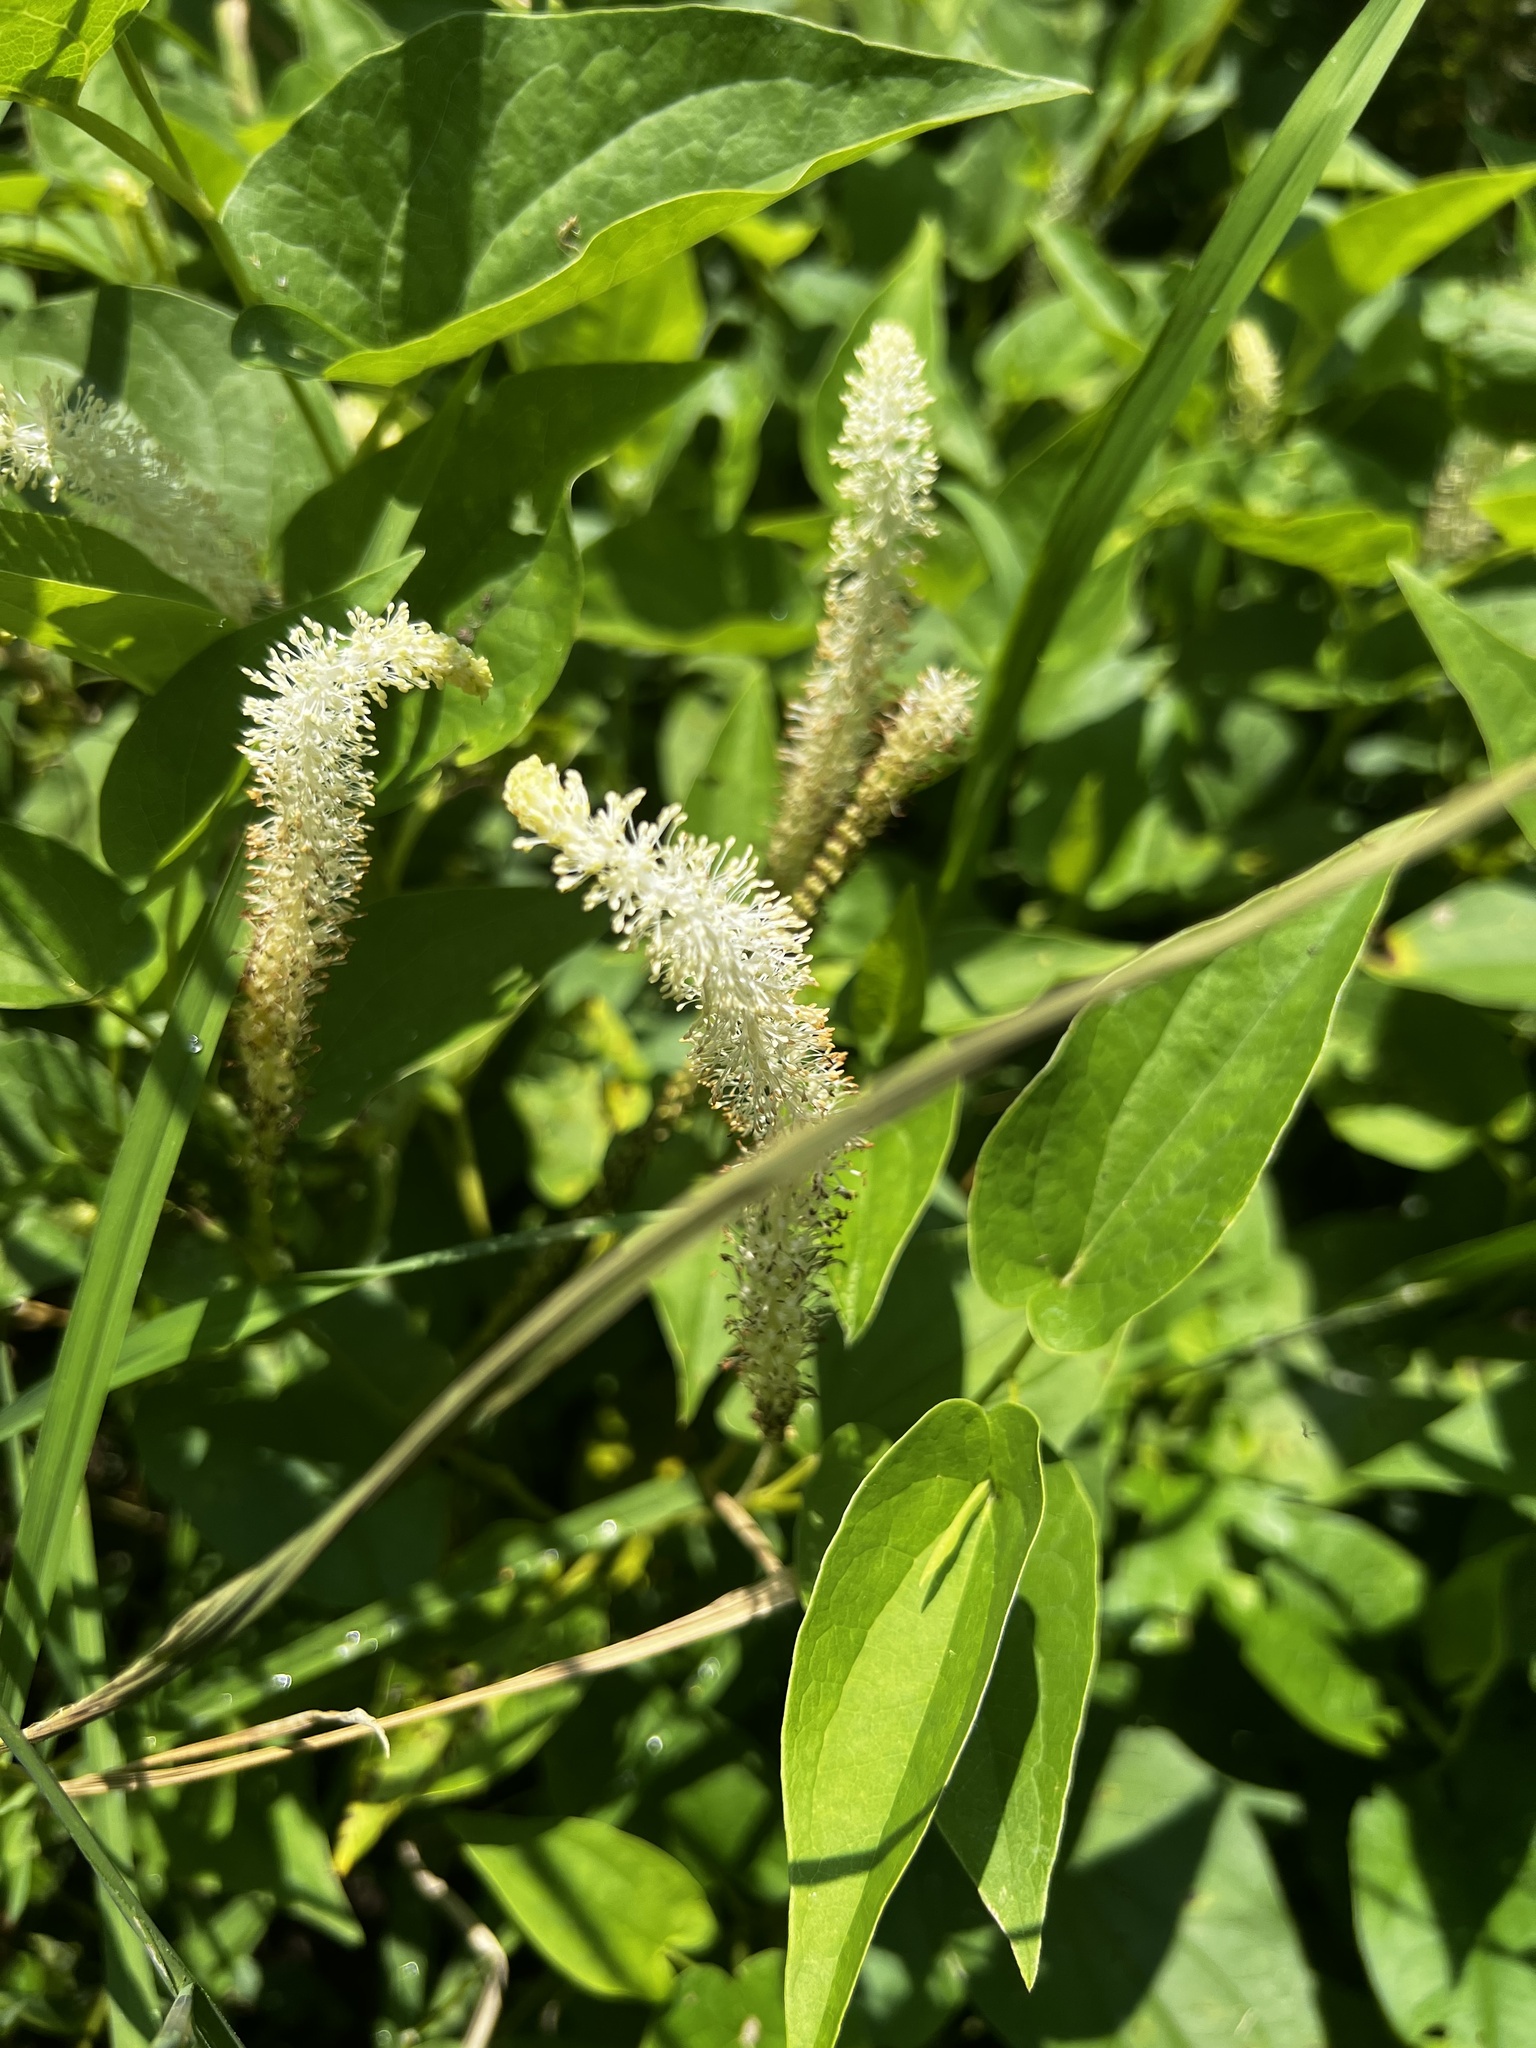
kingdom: Plantae
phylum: Tracheophyta
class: Magnoliopsida
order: Piperales
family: Saururaceae
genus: Saururus
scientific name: Saururus cernuus
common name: Lizard's-tail
